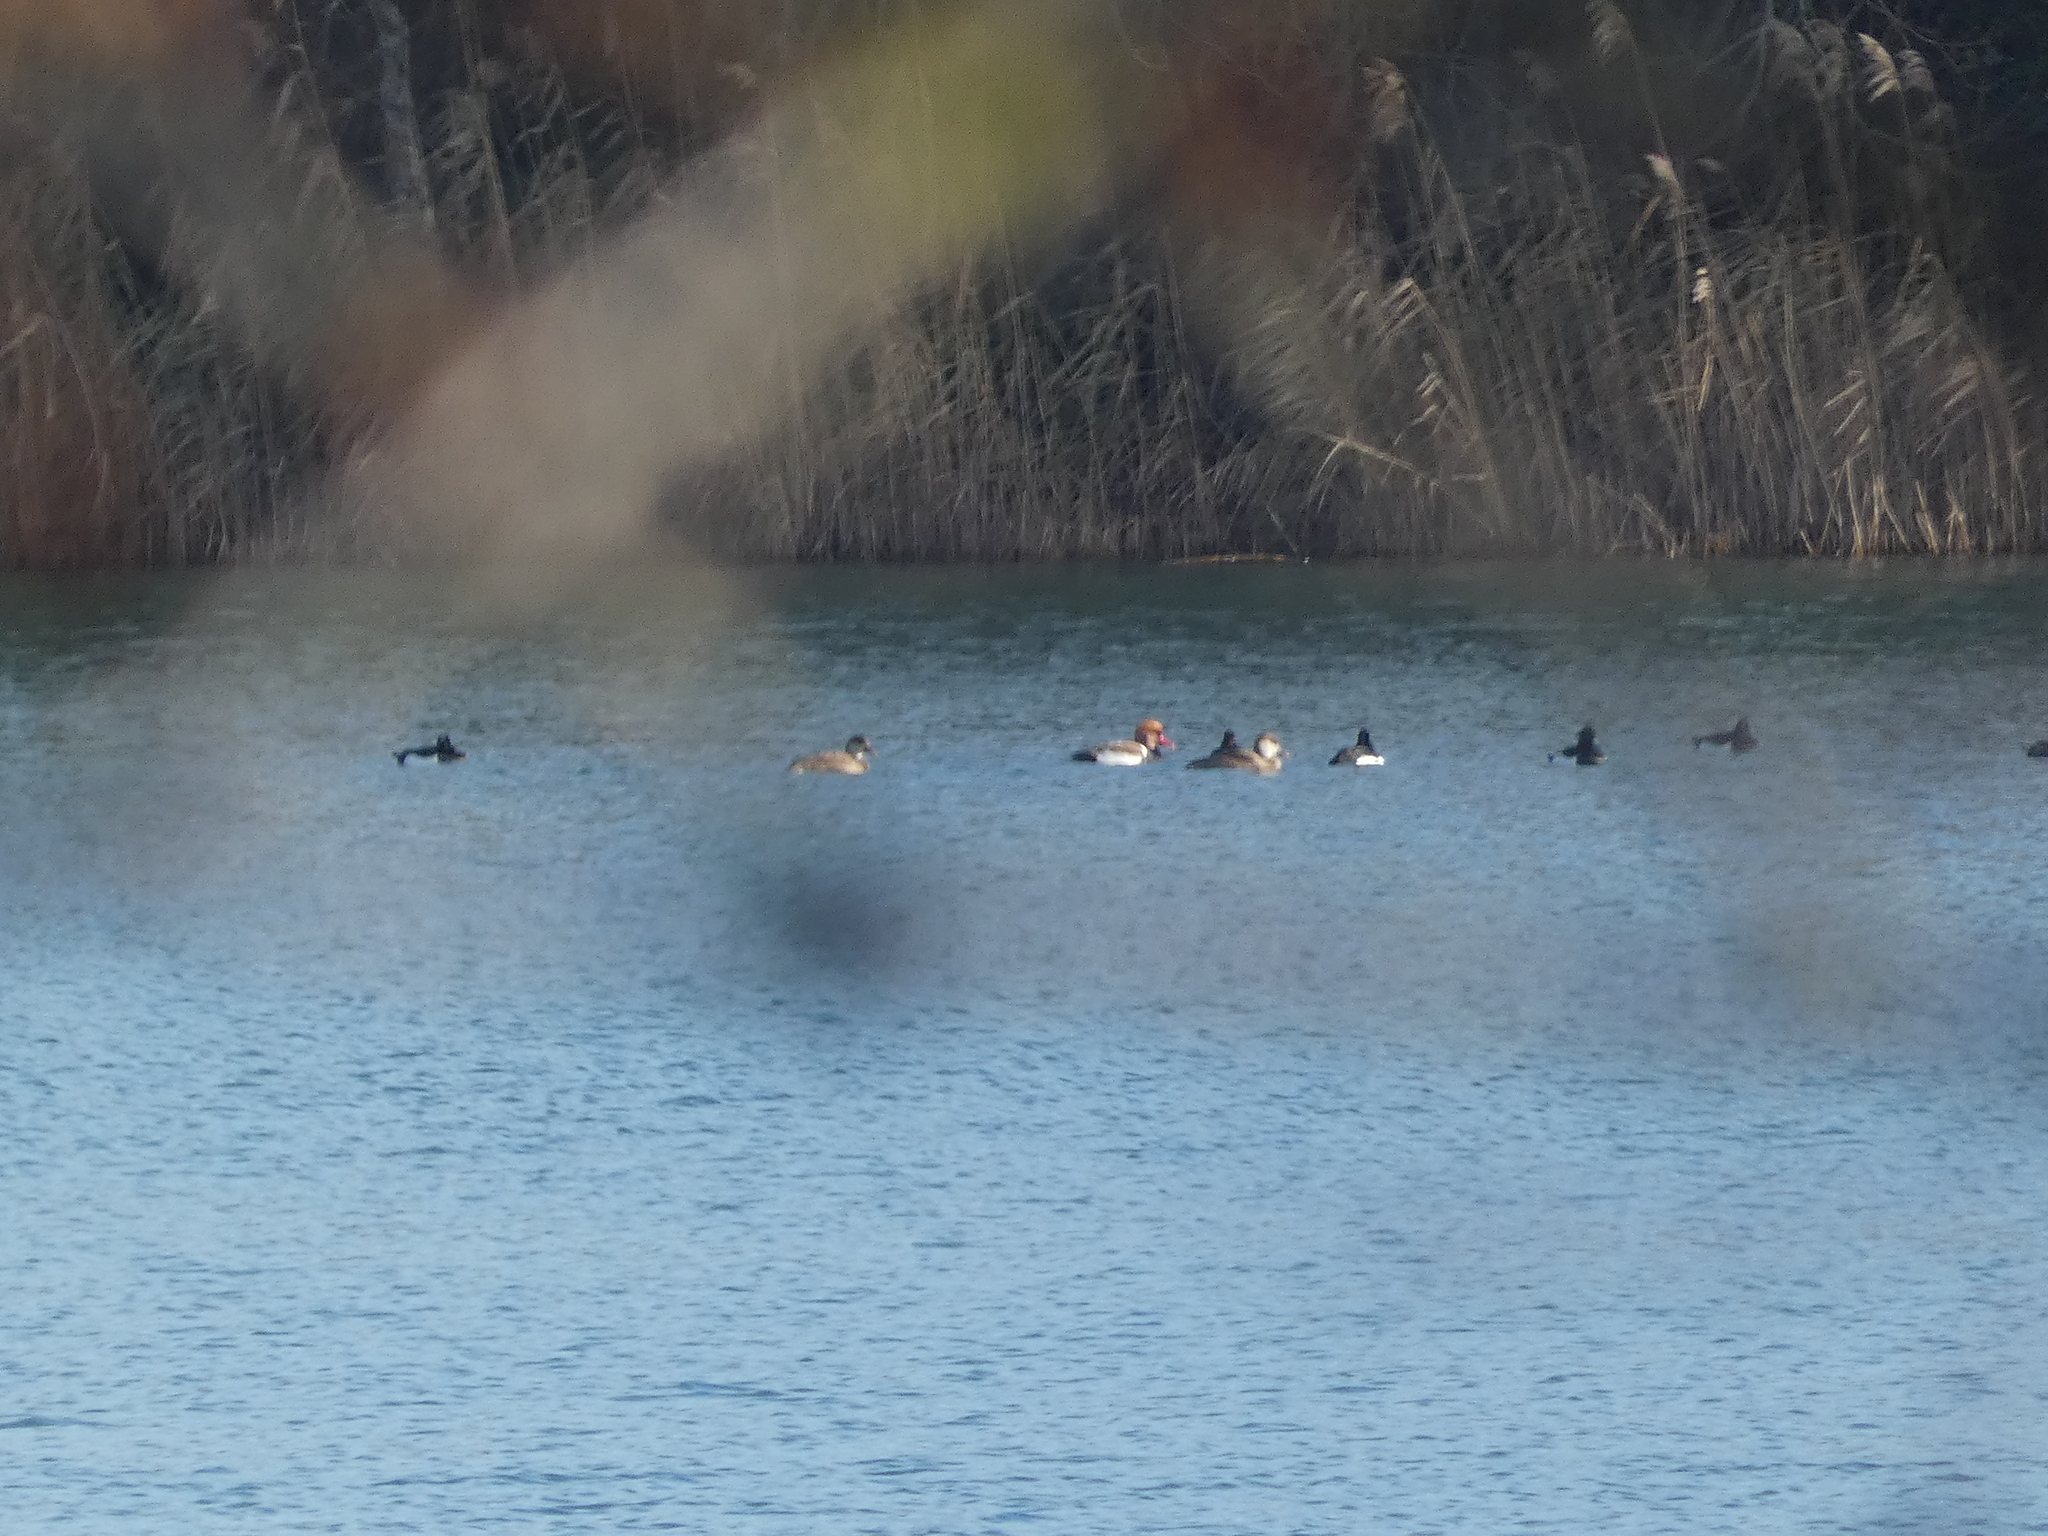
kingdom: Animalia
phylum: Chordata
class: Aves
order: Anseriformes
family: Anatidae
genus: Netta
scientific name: Netta rufina
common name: Red-crested pochard
